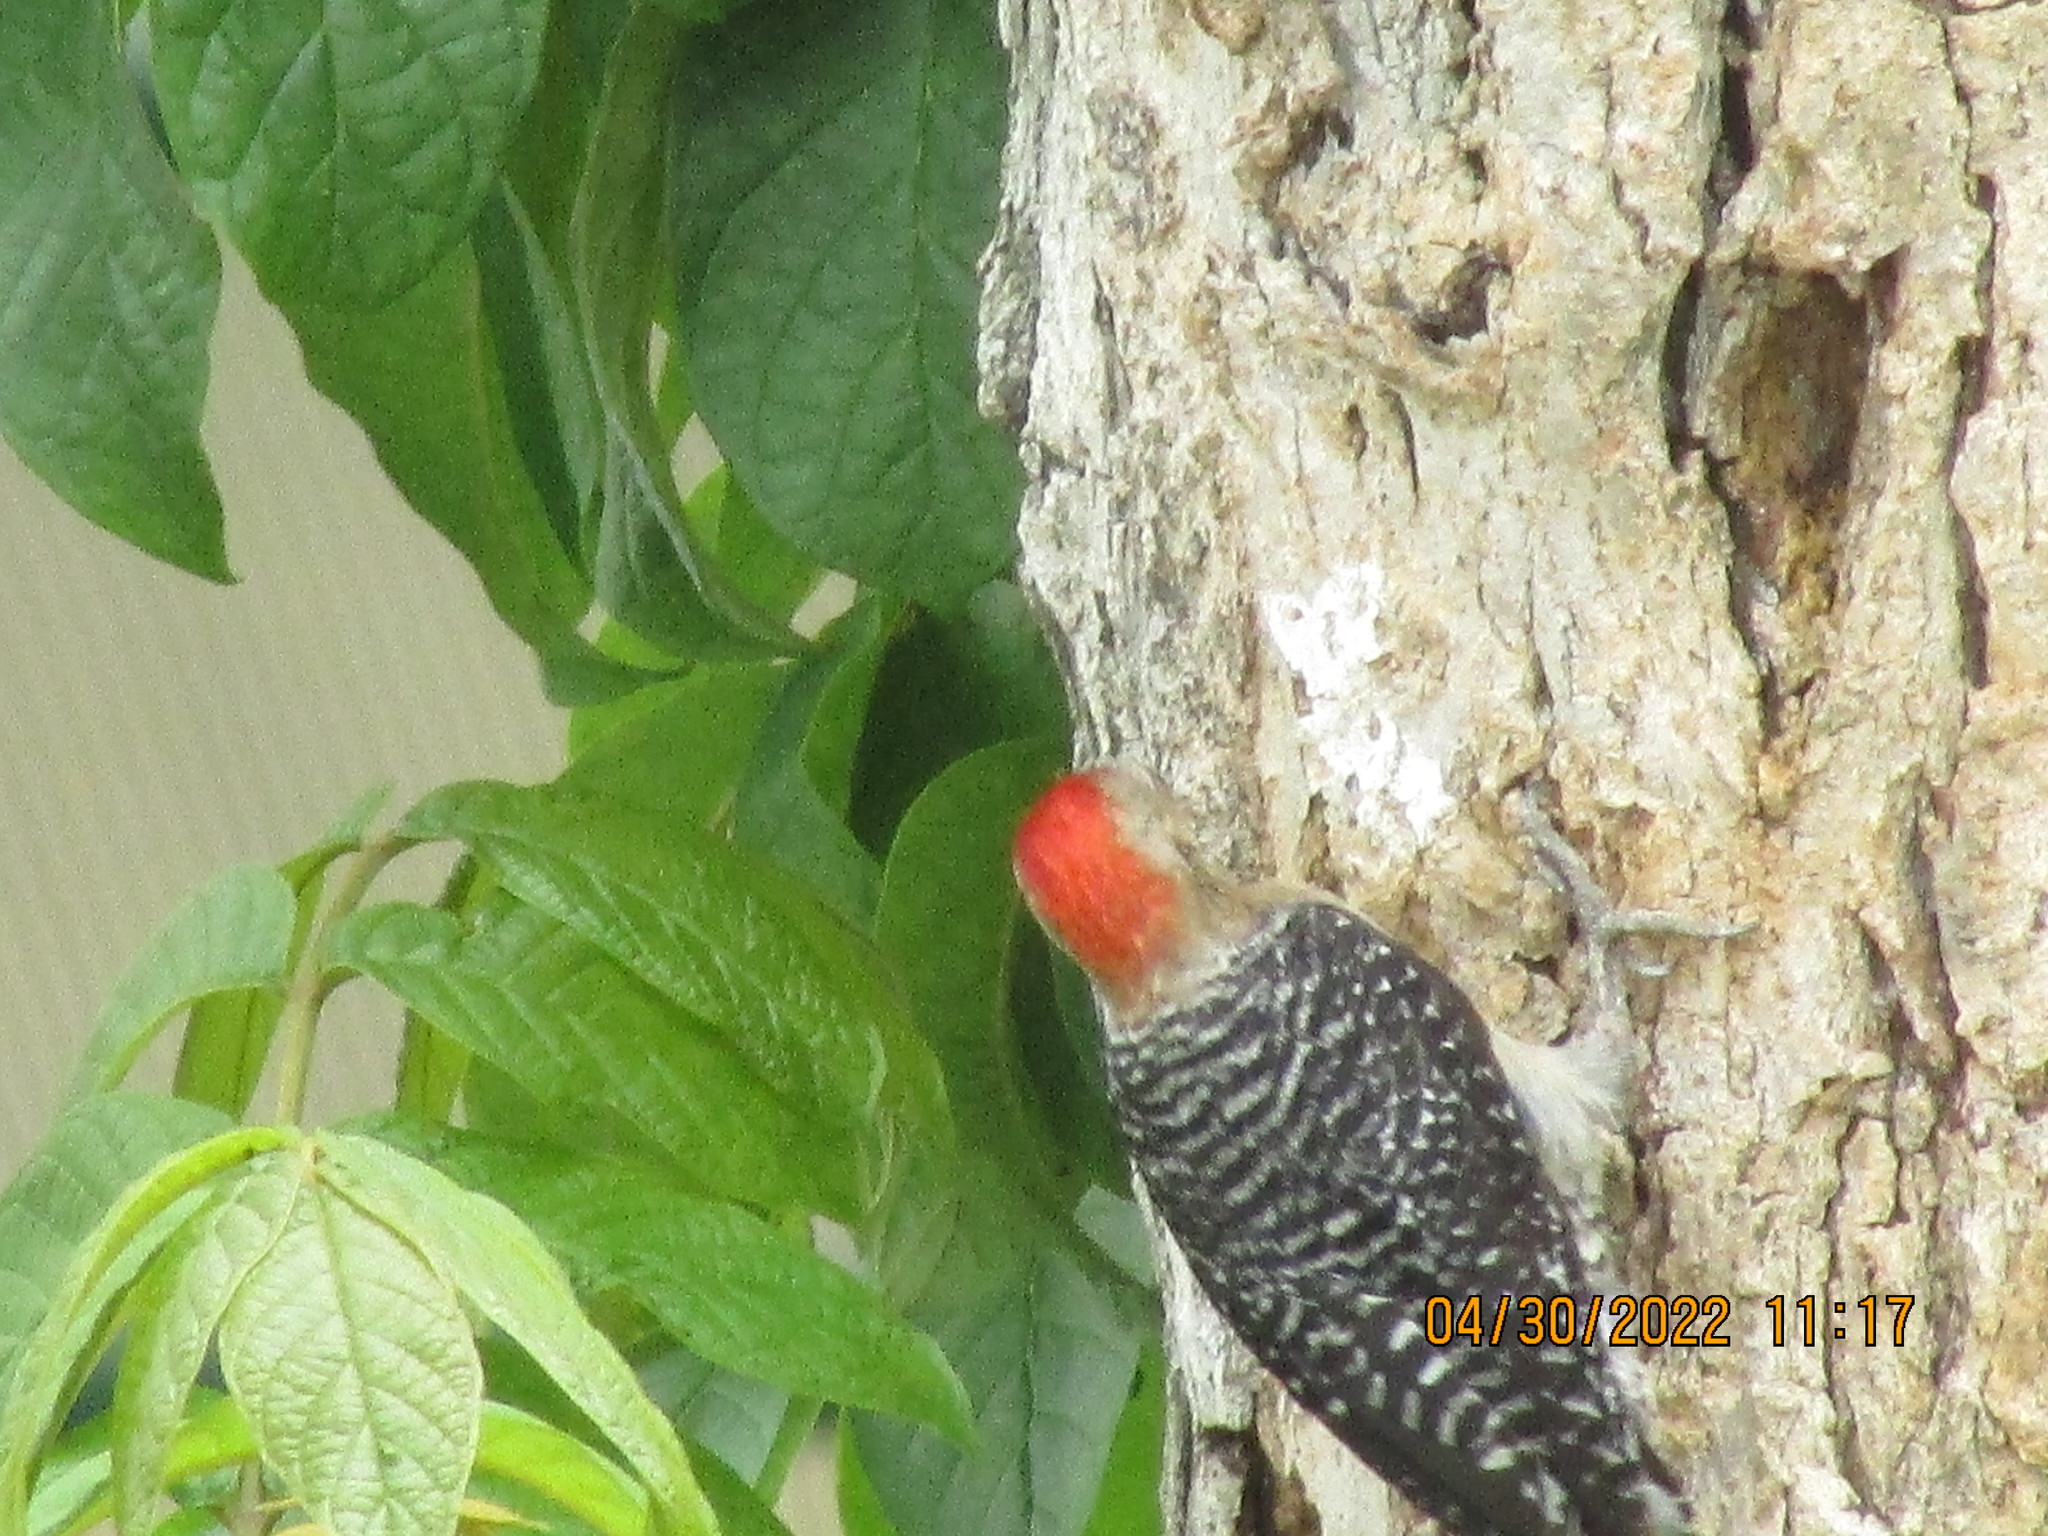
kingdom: Animalia
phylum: Chordata
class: Aves
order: Piciformes
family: Picidae
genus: Melanerpes
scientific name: Melanerpes rubricapillus
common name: Red-crowned woodpecker
